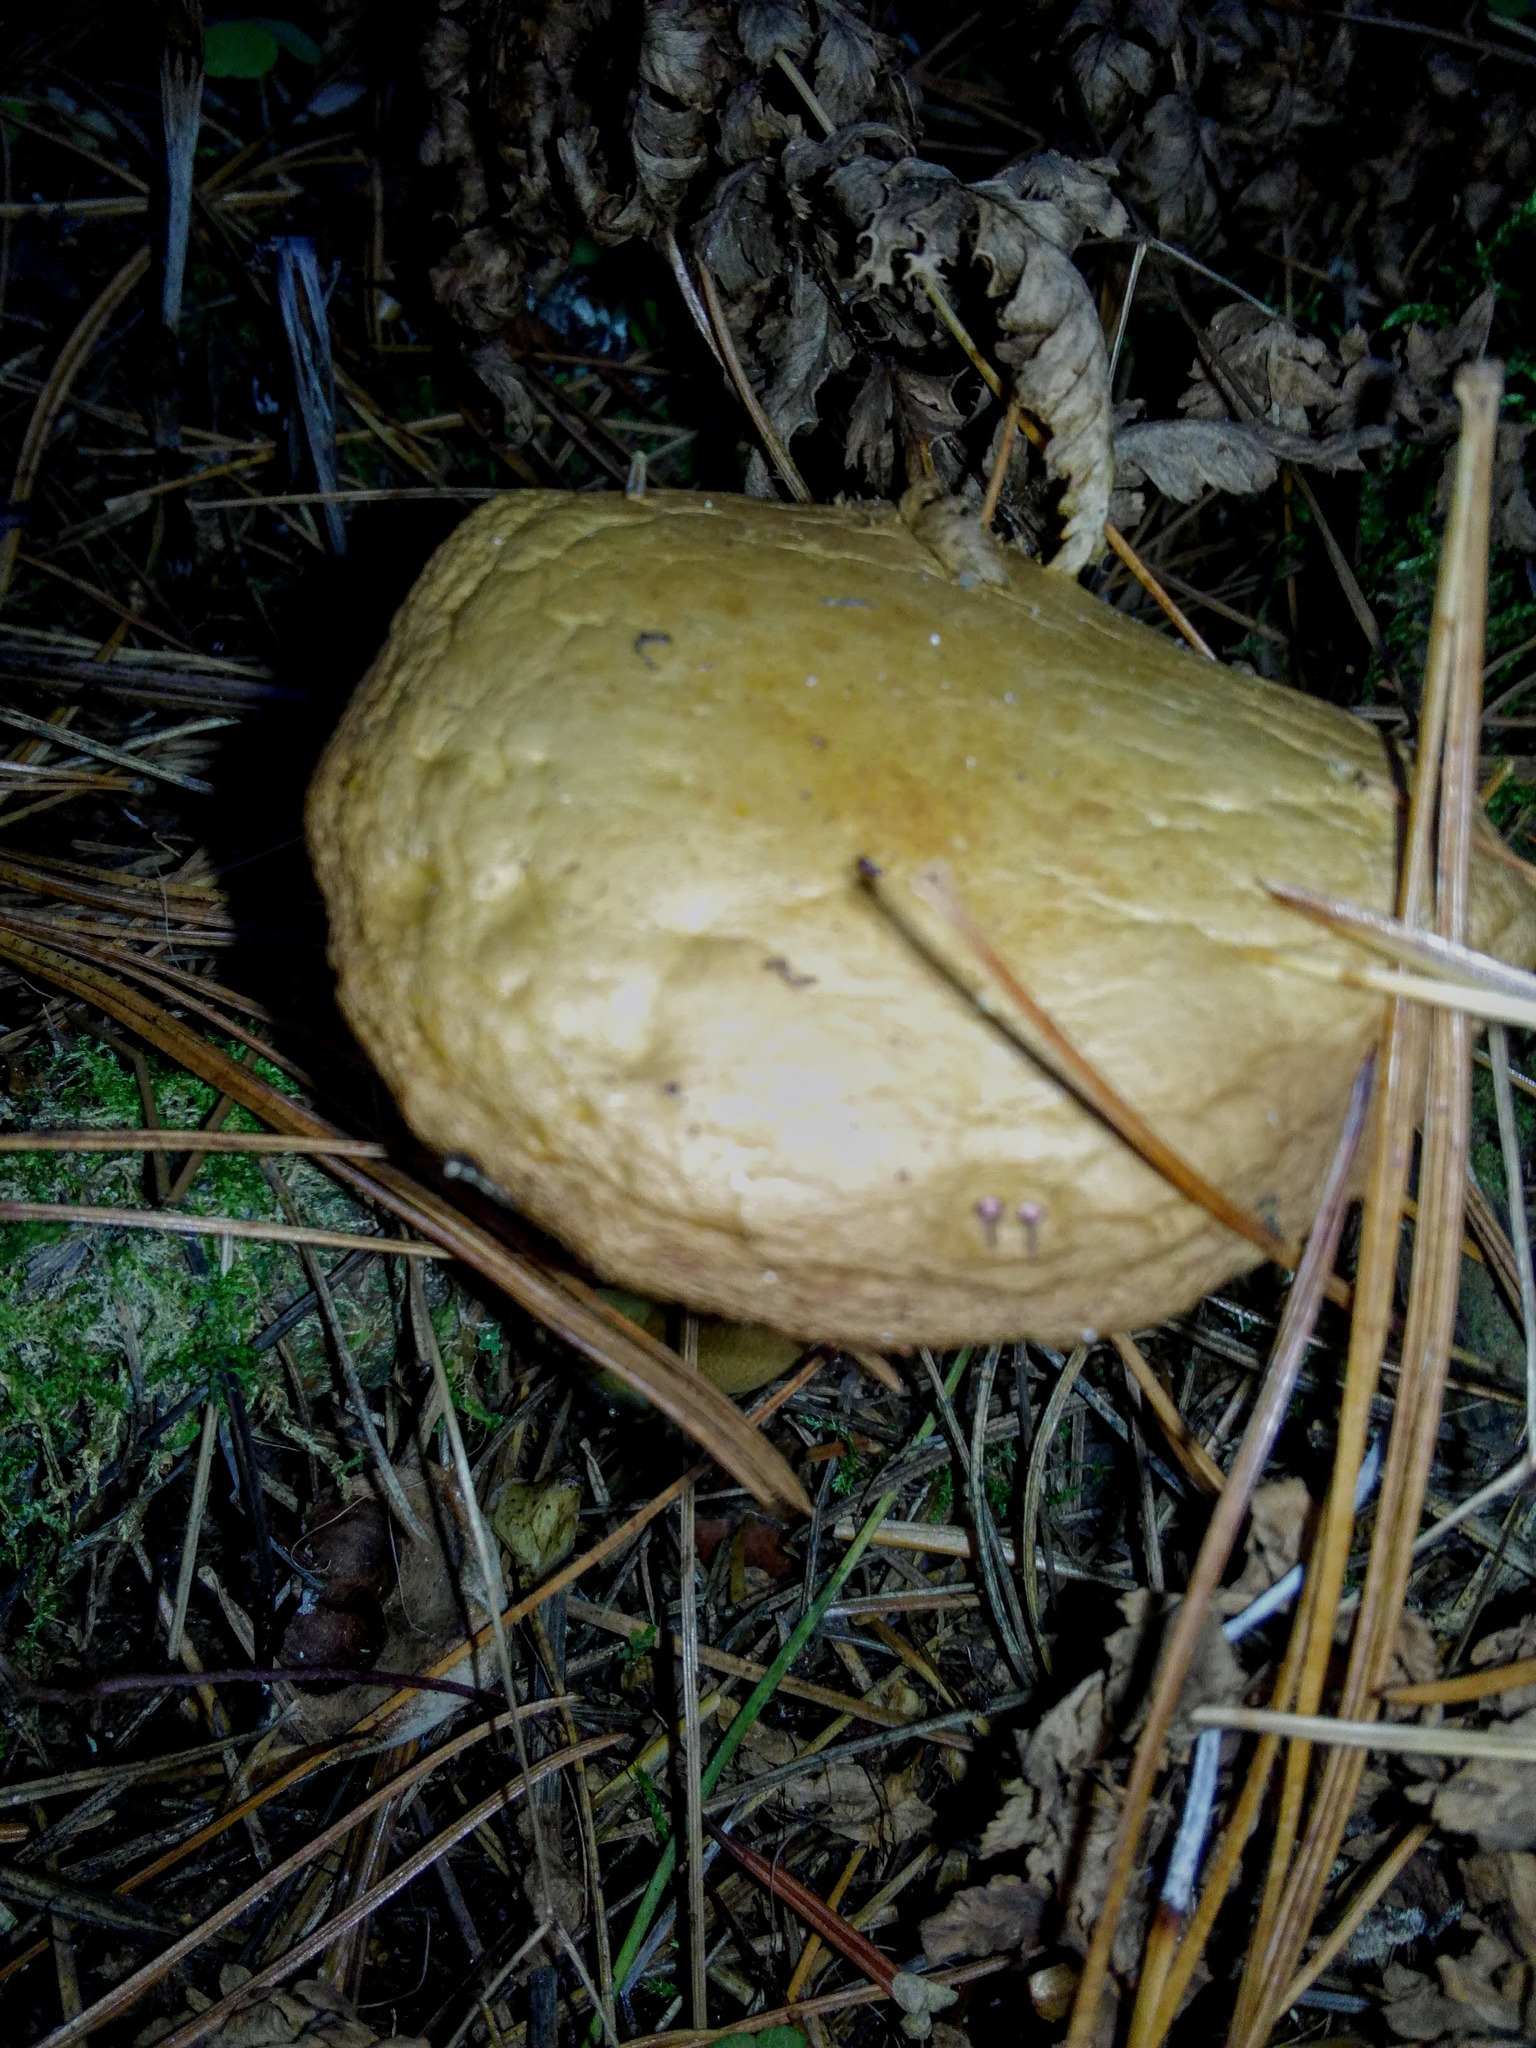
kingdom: Fungi
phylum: Basidiomycota
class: Agaricomycetes
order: Boletales
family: Boletaceae
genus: Chalciporus
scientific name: Chalciporus piperatus
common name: Peppery bolete
